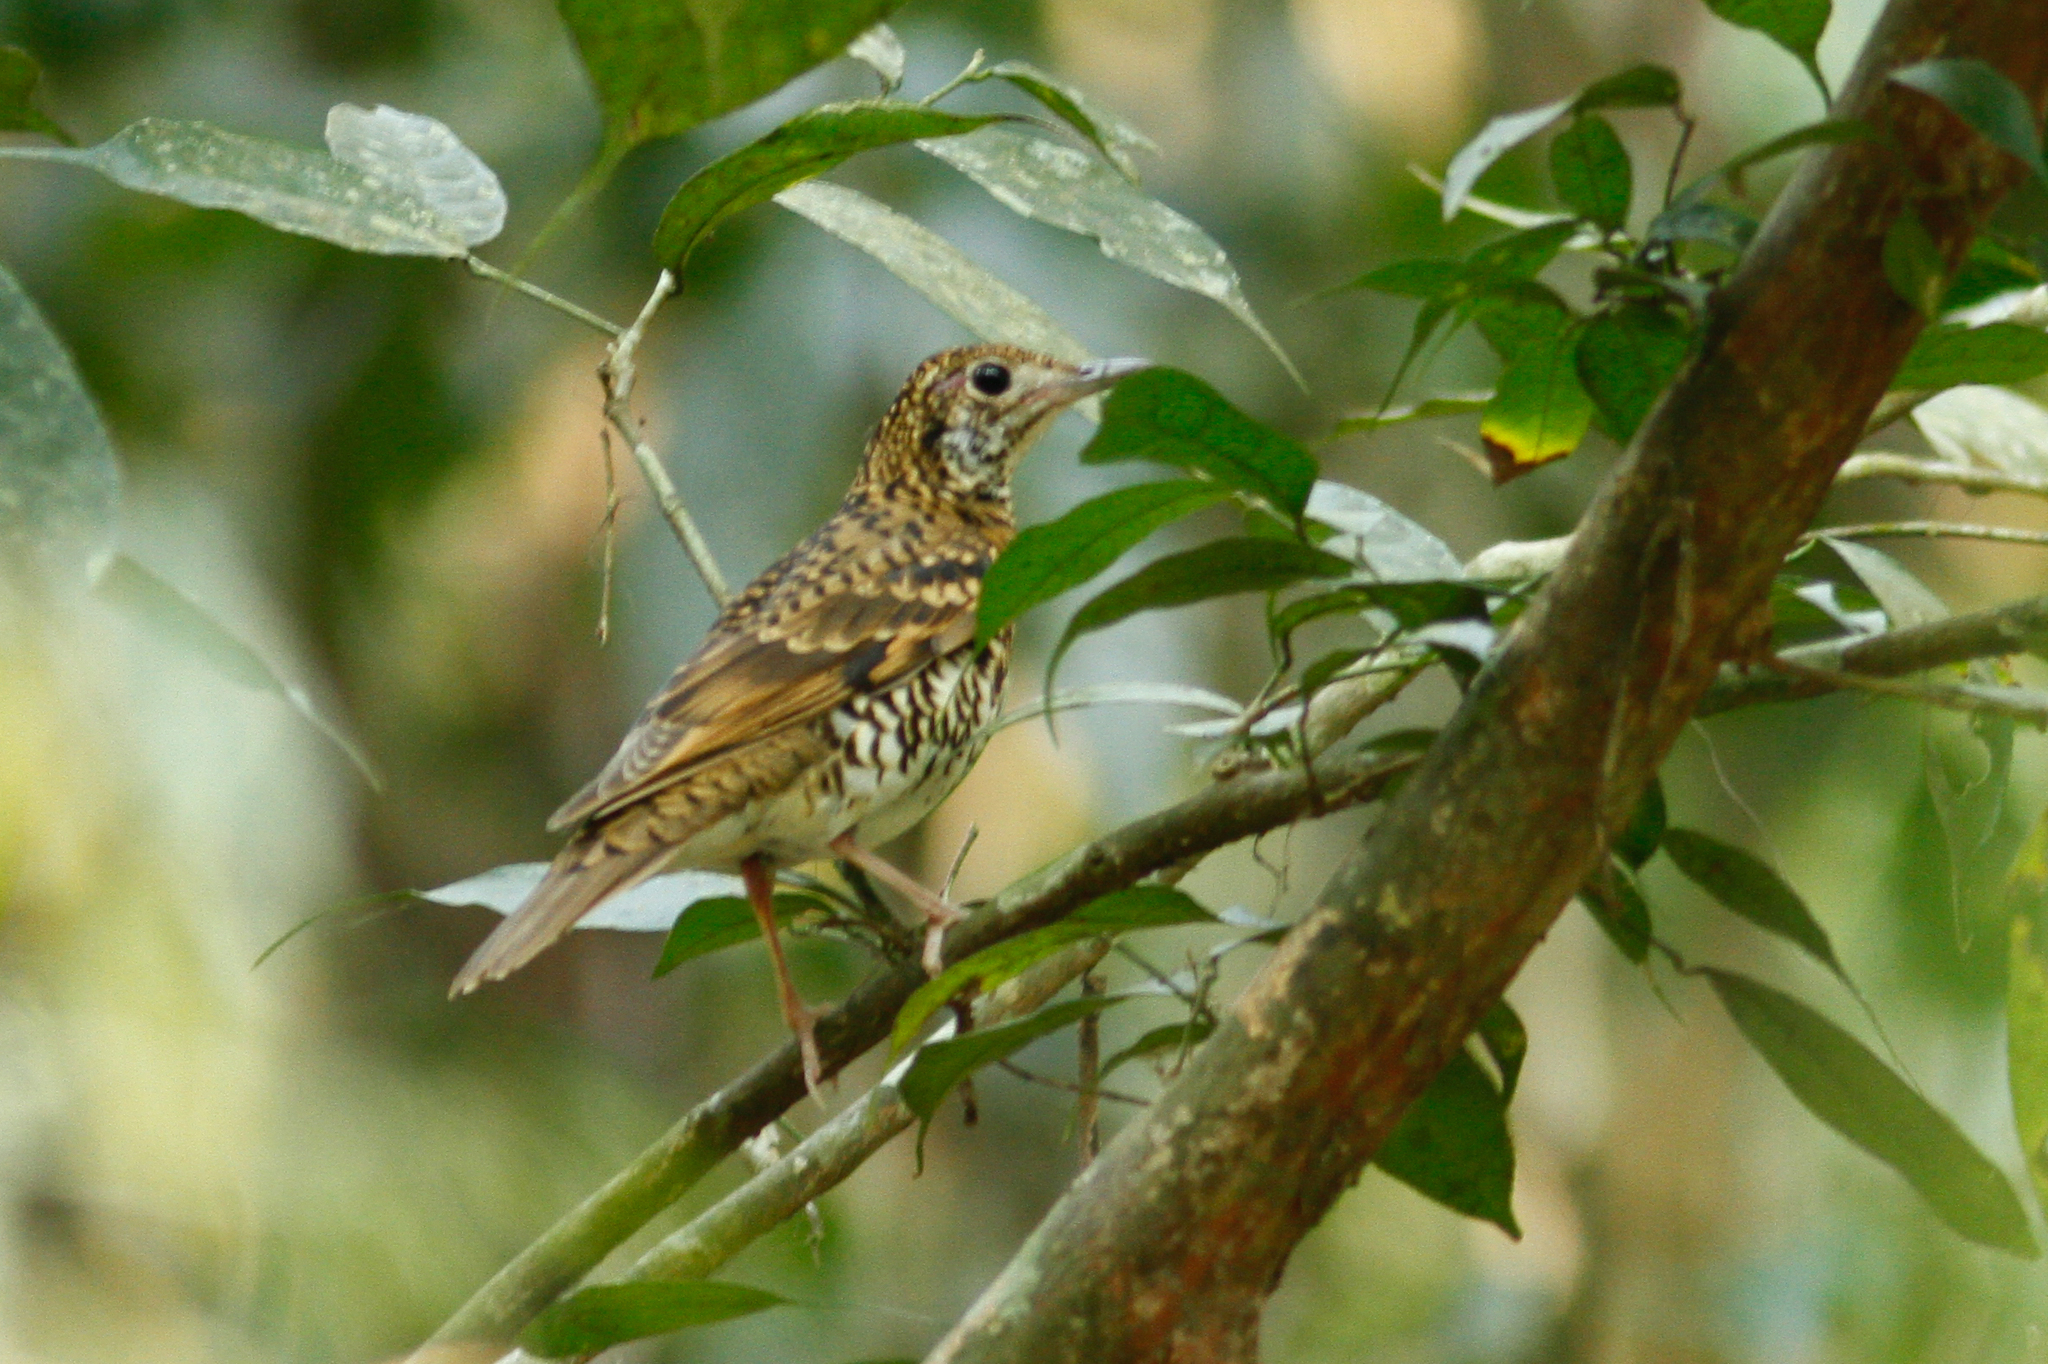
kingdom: Animalia
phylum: Chordata
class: Aves
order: Passeriformes
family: Turdidae
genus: Zoothera
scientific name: Zoothera aurea
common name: White's thrush
